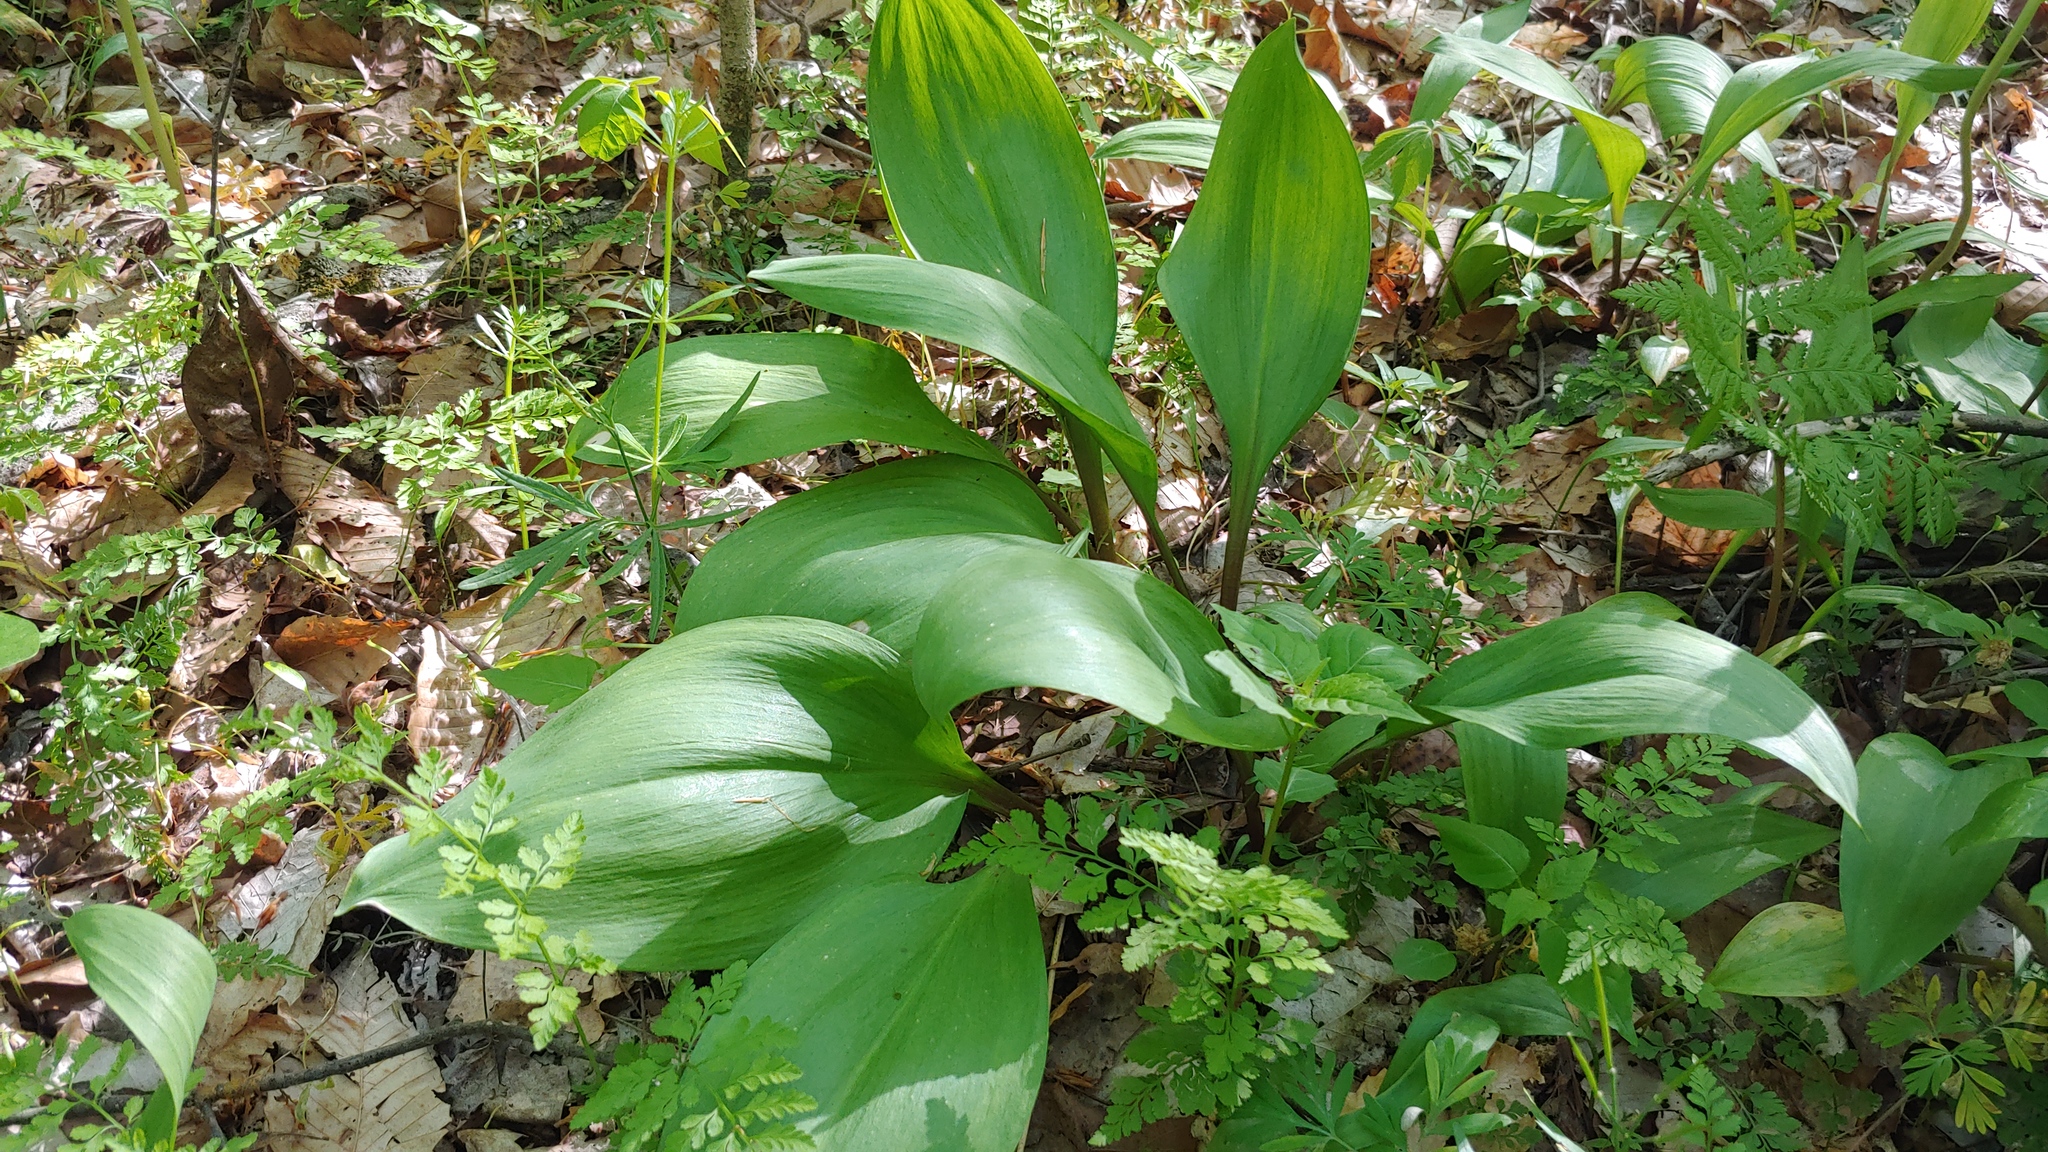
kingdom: Plantae
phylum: Tracheophyta
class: Liliopsida
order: Asparagales
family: Amaryllidaceae
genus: Allium
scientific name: Allium tricoccum
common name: Ramp
